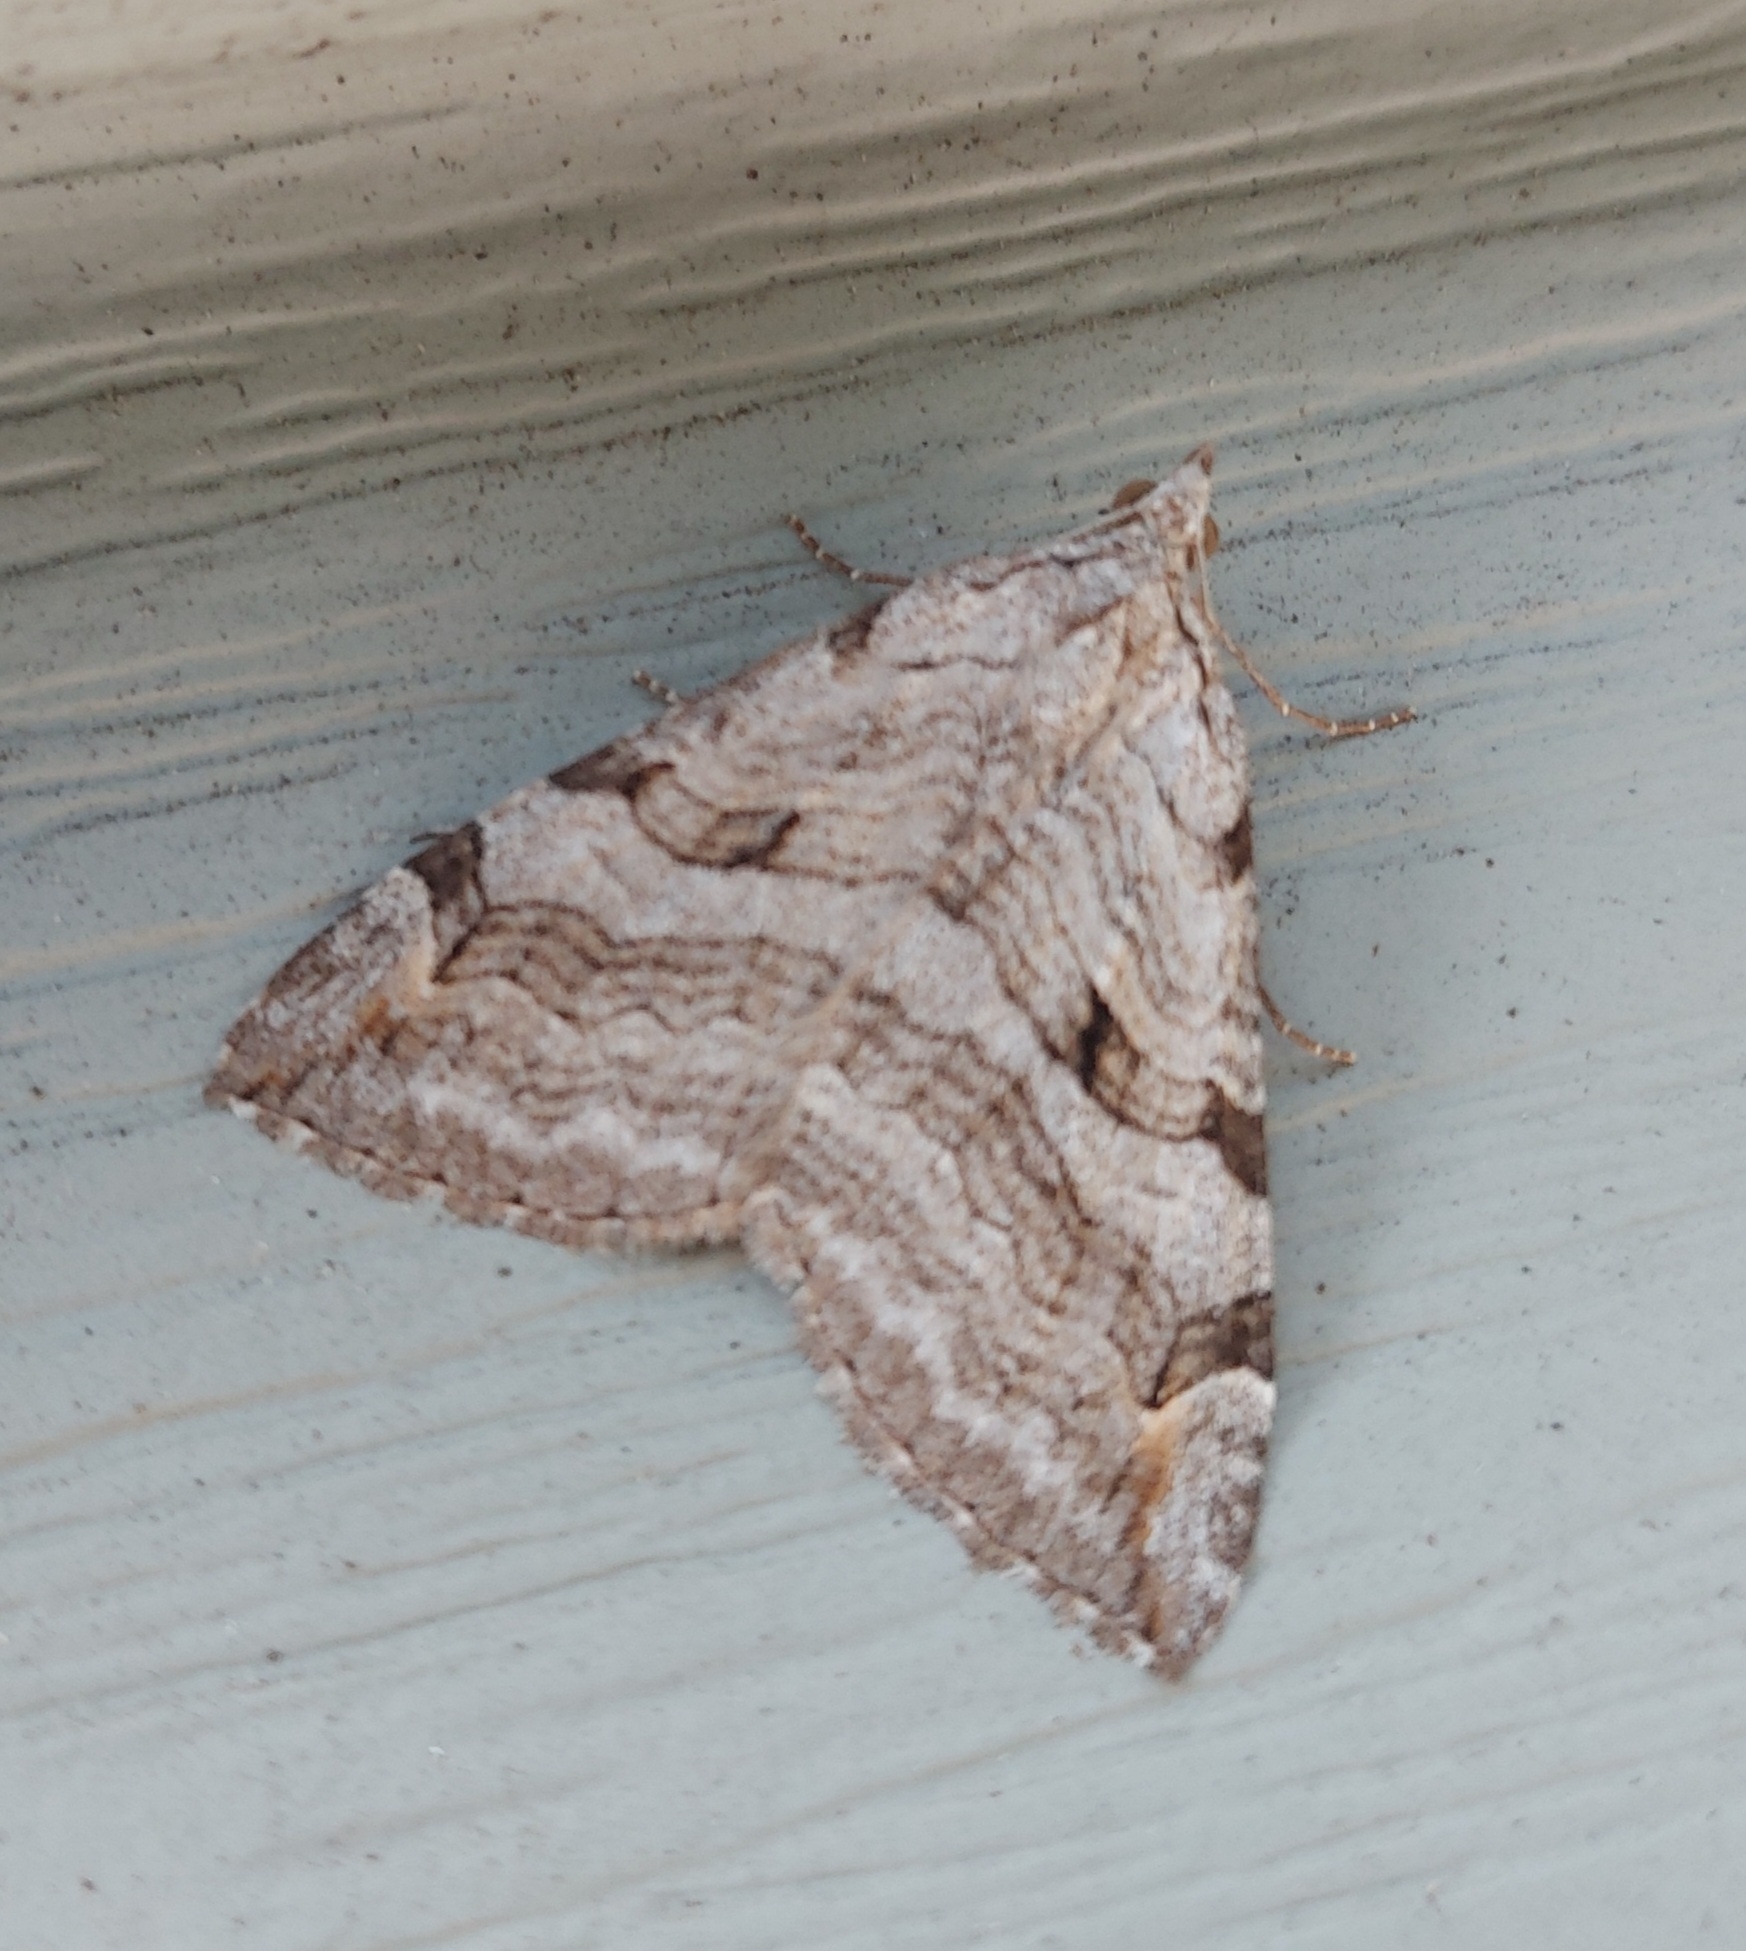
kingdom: Animalia
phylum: Arthropoda
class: Insecta
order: Lepidoptera
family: Geometridae
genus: Aplocera
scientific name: Aplocera plagiata
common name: Treble-bar
